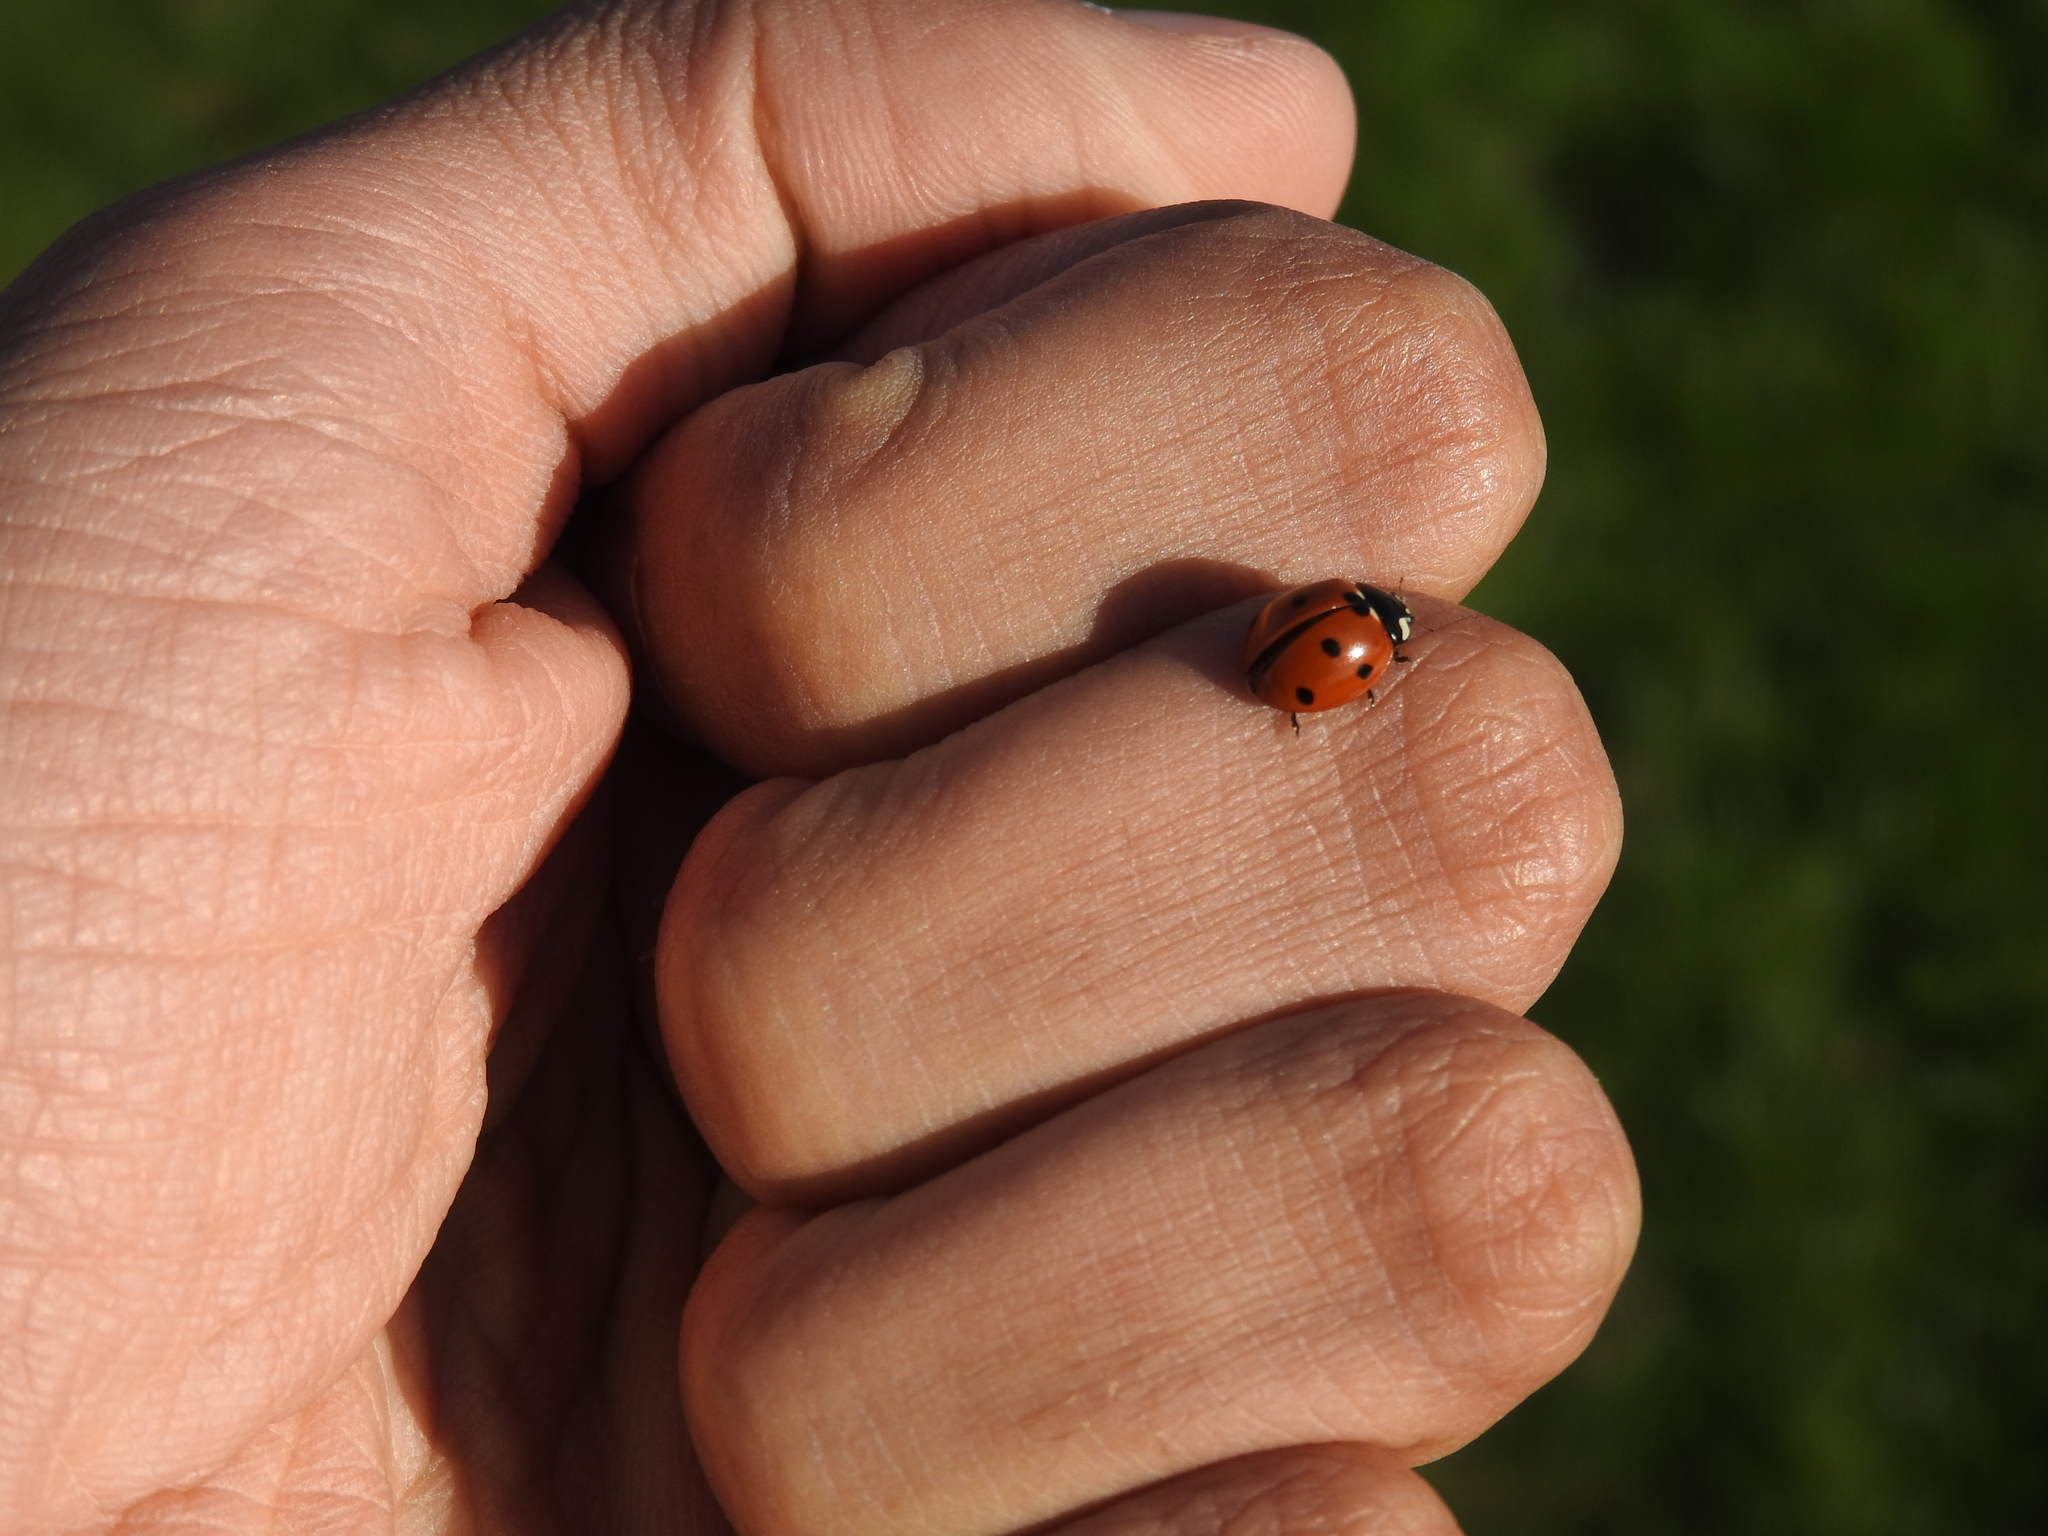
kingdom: Animalia
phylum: Arthropoda
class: Insecta
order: Coleoptera
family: Coccinellidae
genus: Coccinella
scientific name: Coccinella septempunctata
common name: Sevenspotted lady beetle
